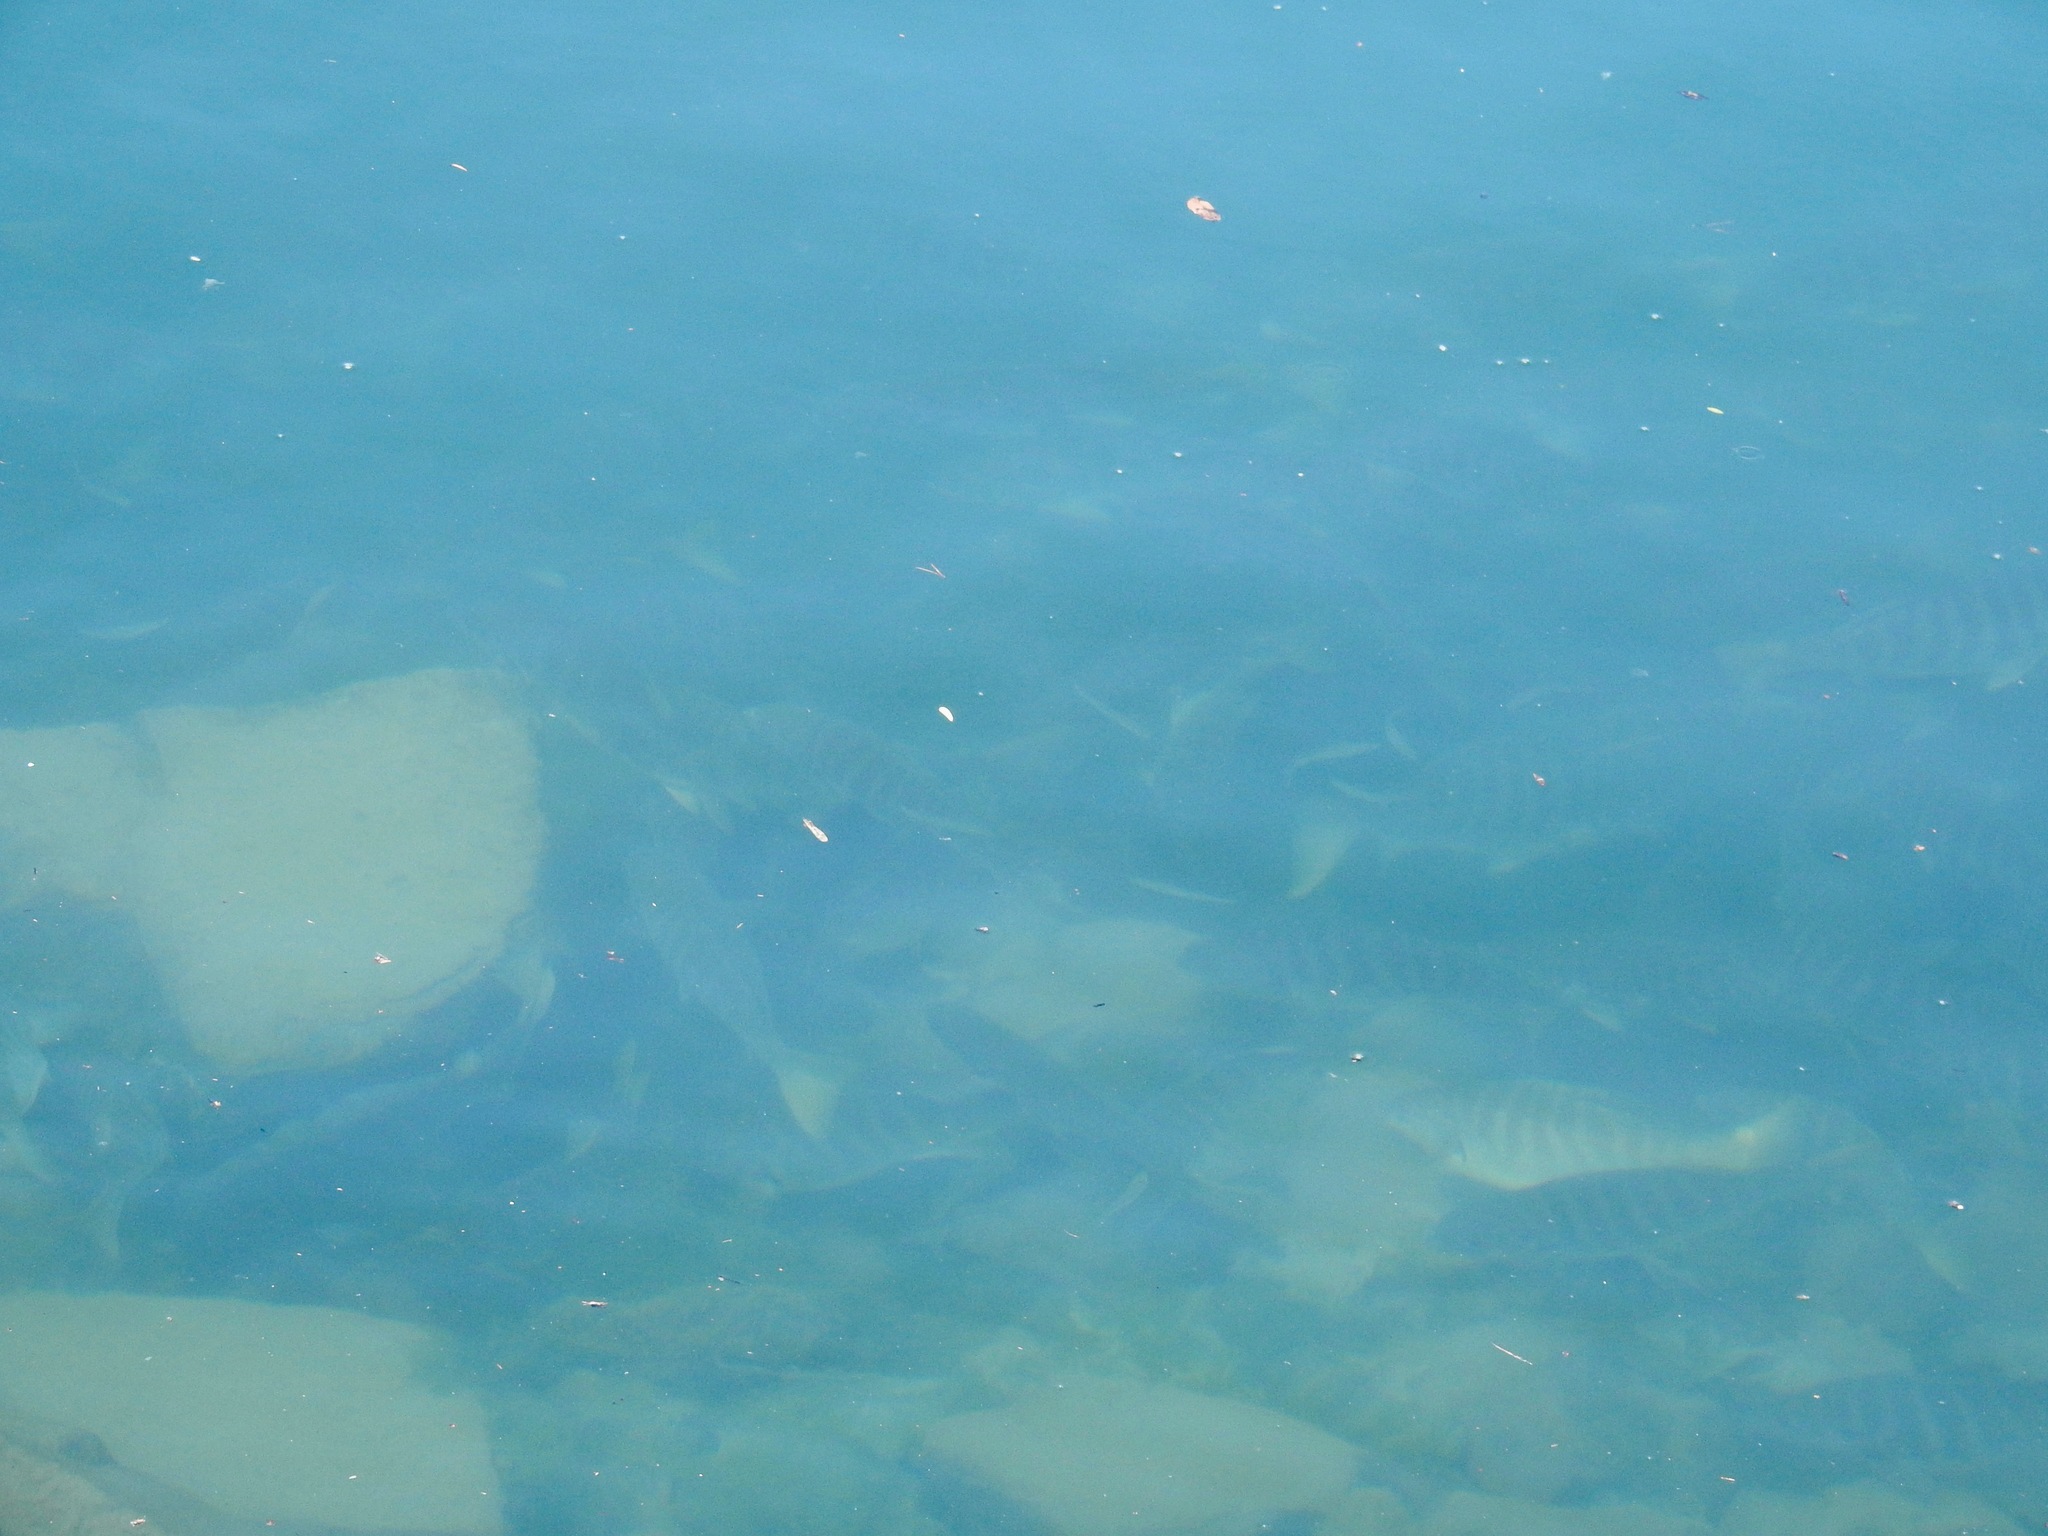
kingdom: Animalia
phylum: Chordata
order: Perciformes
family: Kyphosidae
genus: Kyphosus
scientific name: Kyphosus azureus
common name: Perch
